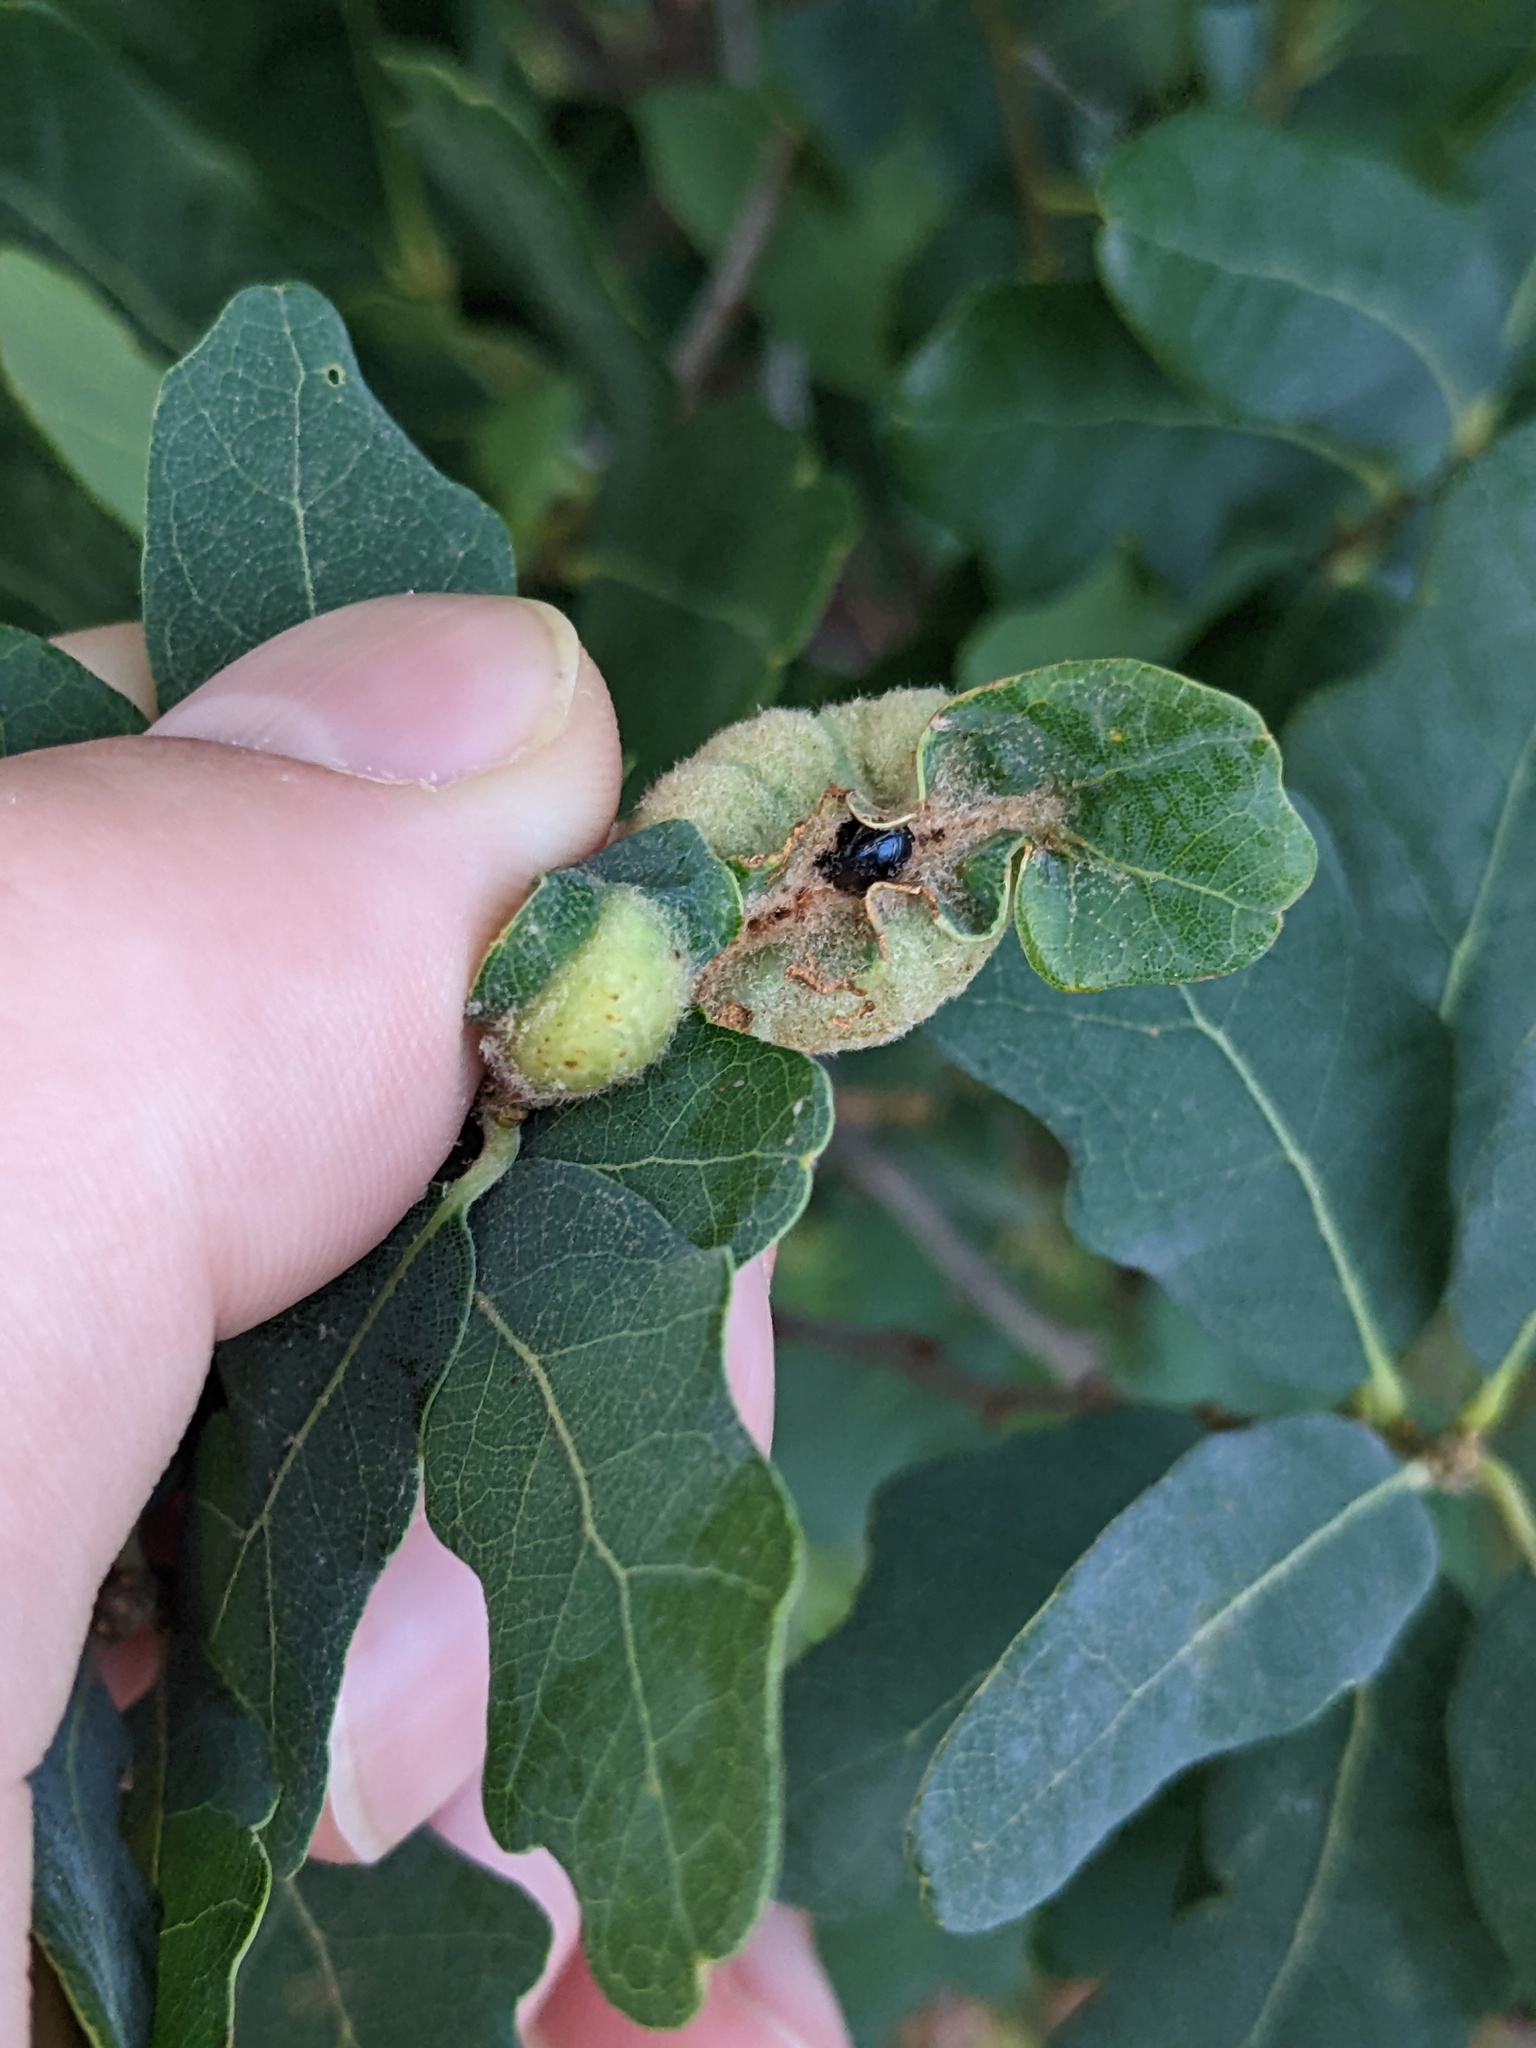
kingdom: Animalia
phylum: Arthropoda
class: Insecta
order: Hymenoptera
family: Cynipidae
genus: Neuroterus
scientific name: Neuroterus
